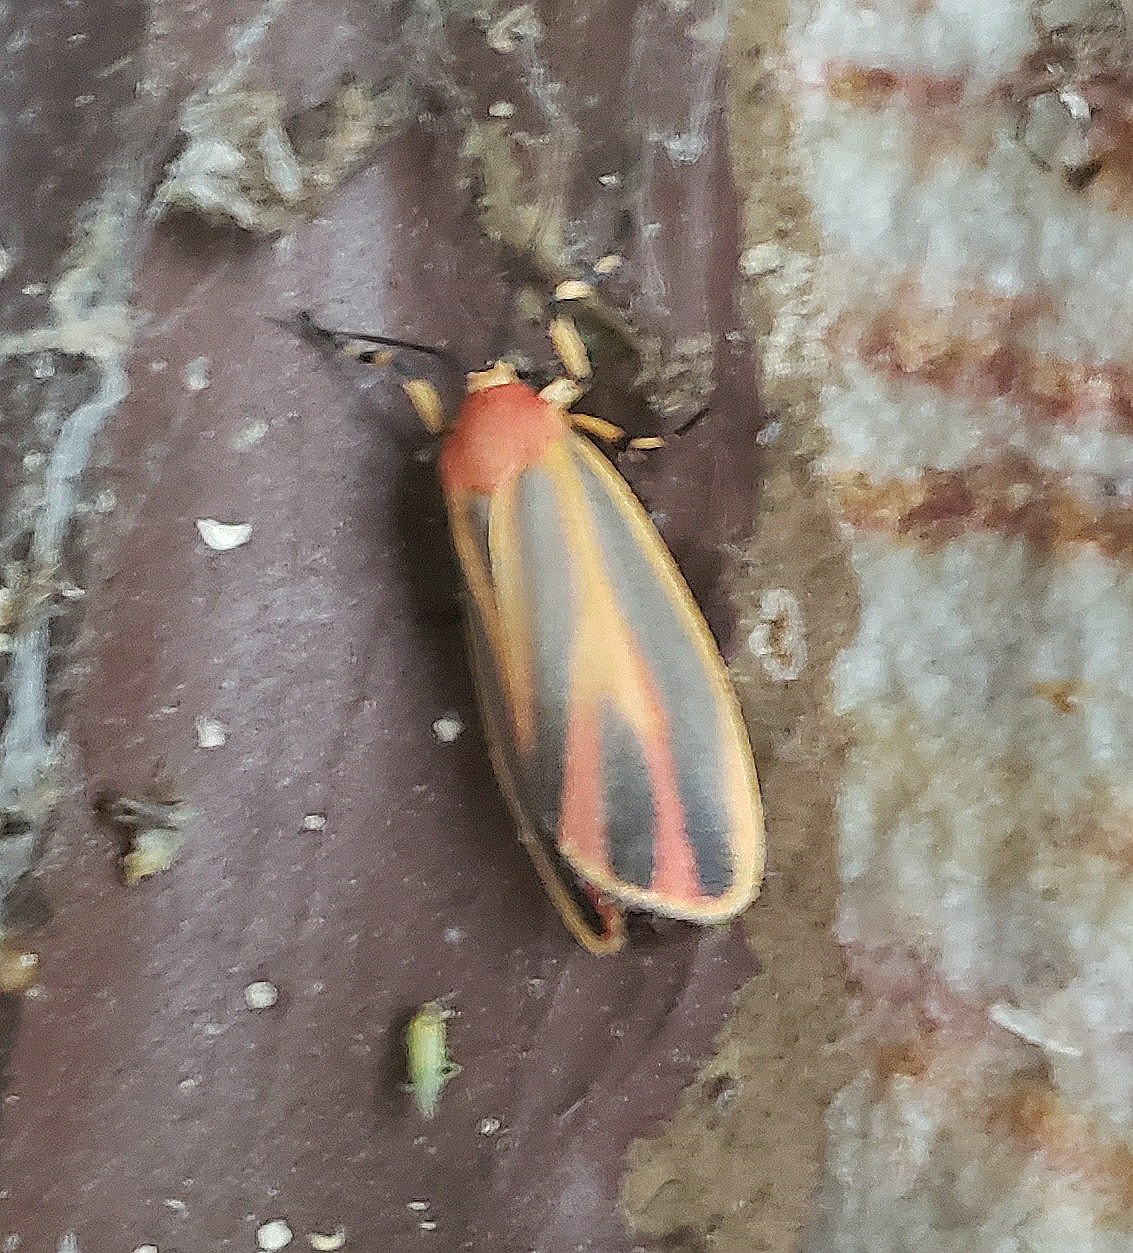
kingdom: Animalia
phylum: Arthropoda
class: Insecta
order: Lepidoptera
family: Erebidae
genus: Hypoprepia
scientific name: Hypoprepia fucosa
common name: Painted lichen moth
